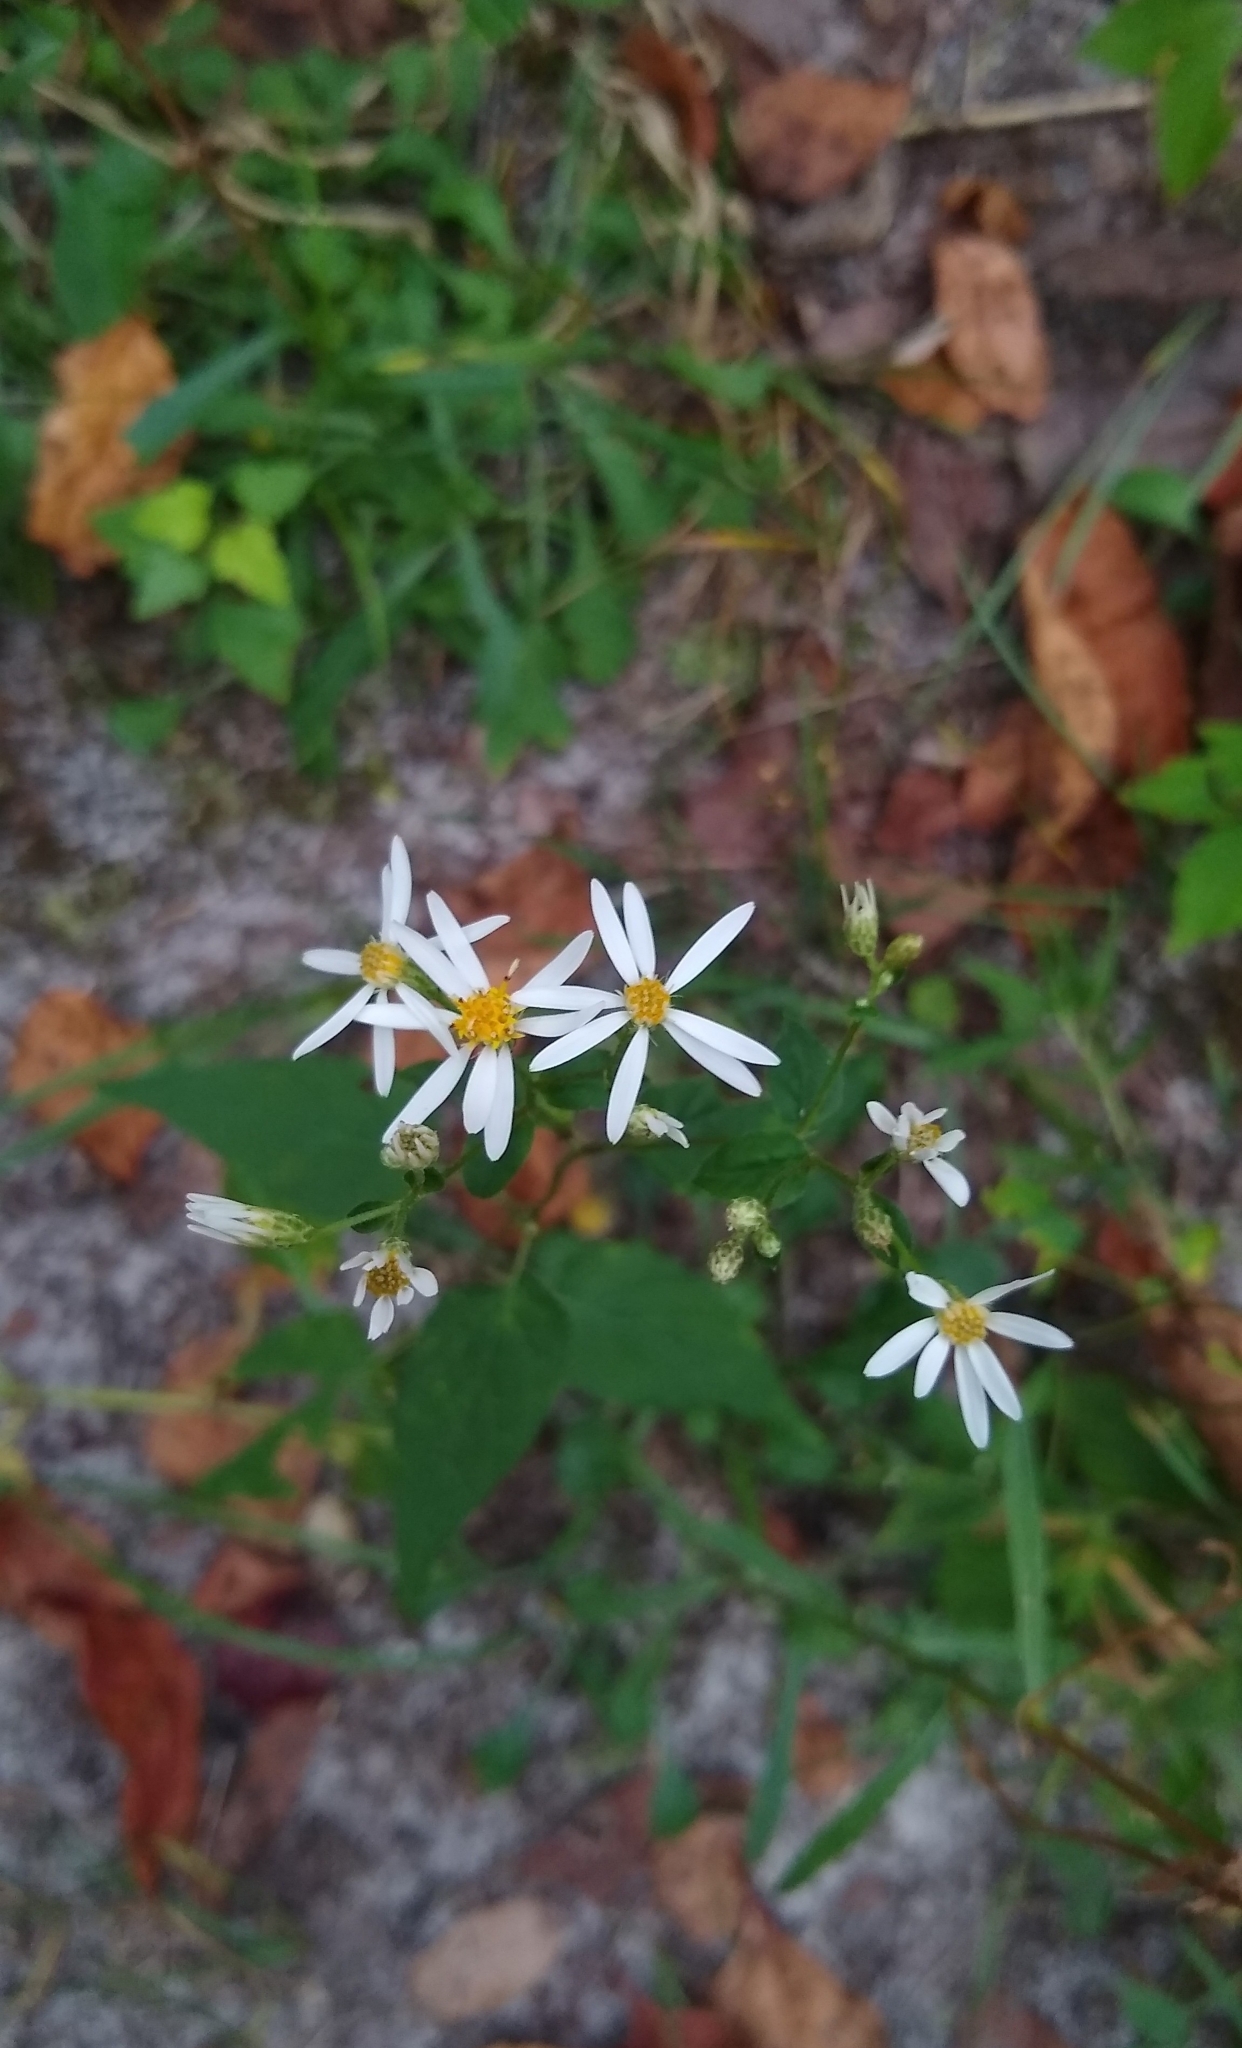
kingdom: Plantae
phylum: Tracheophyta
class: Magnoliopsida
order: Asterales
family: Asteraceae
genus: Eurybia
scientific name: Eurybia divaricata
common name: White wood aster
